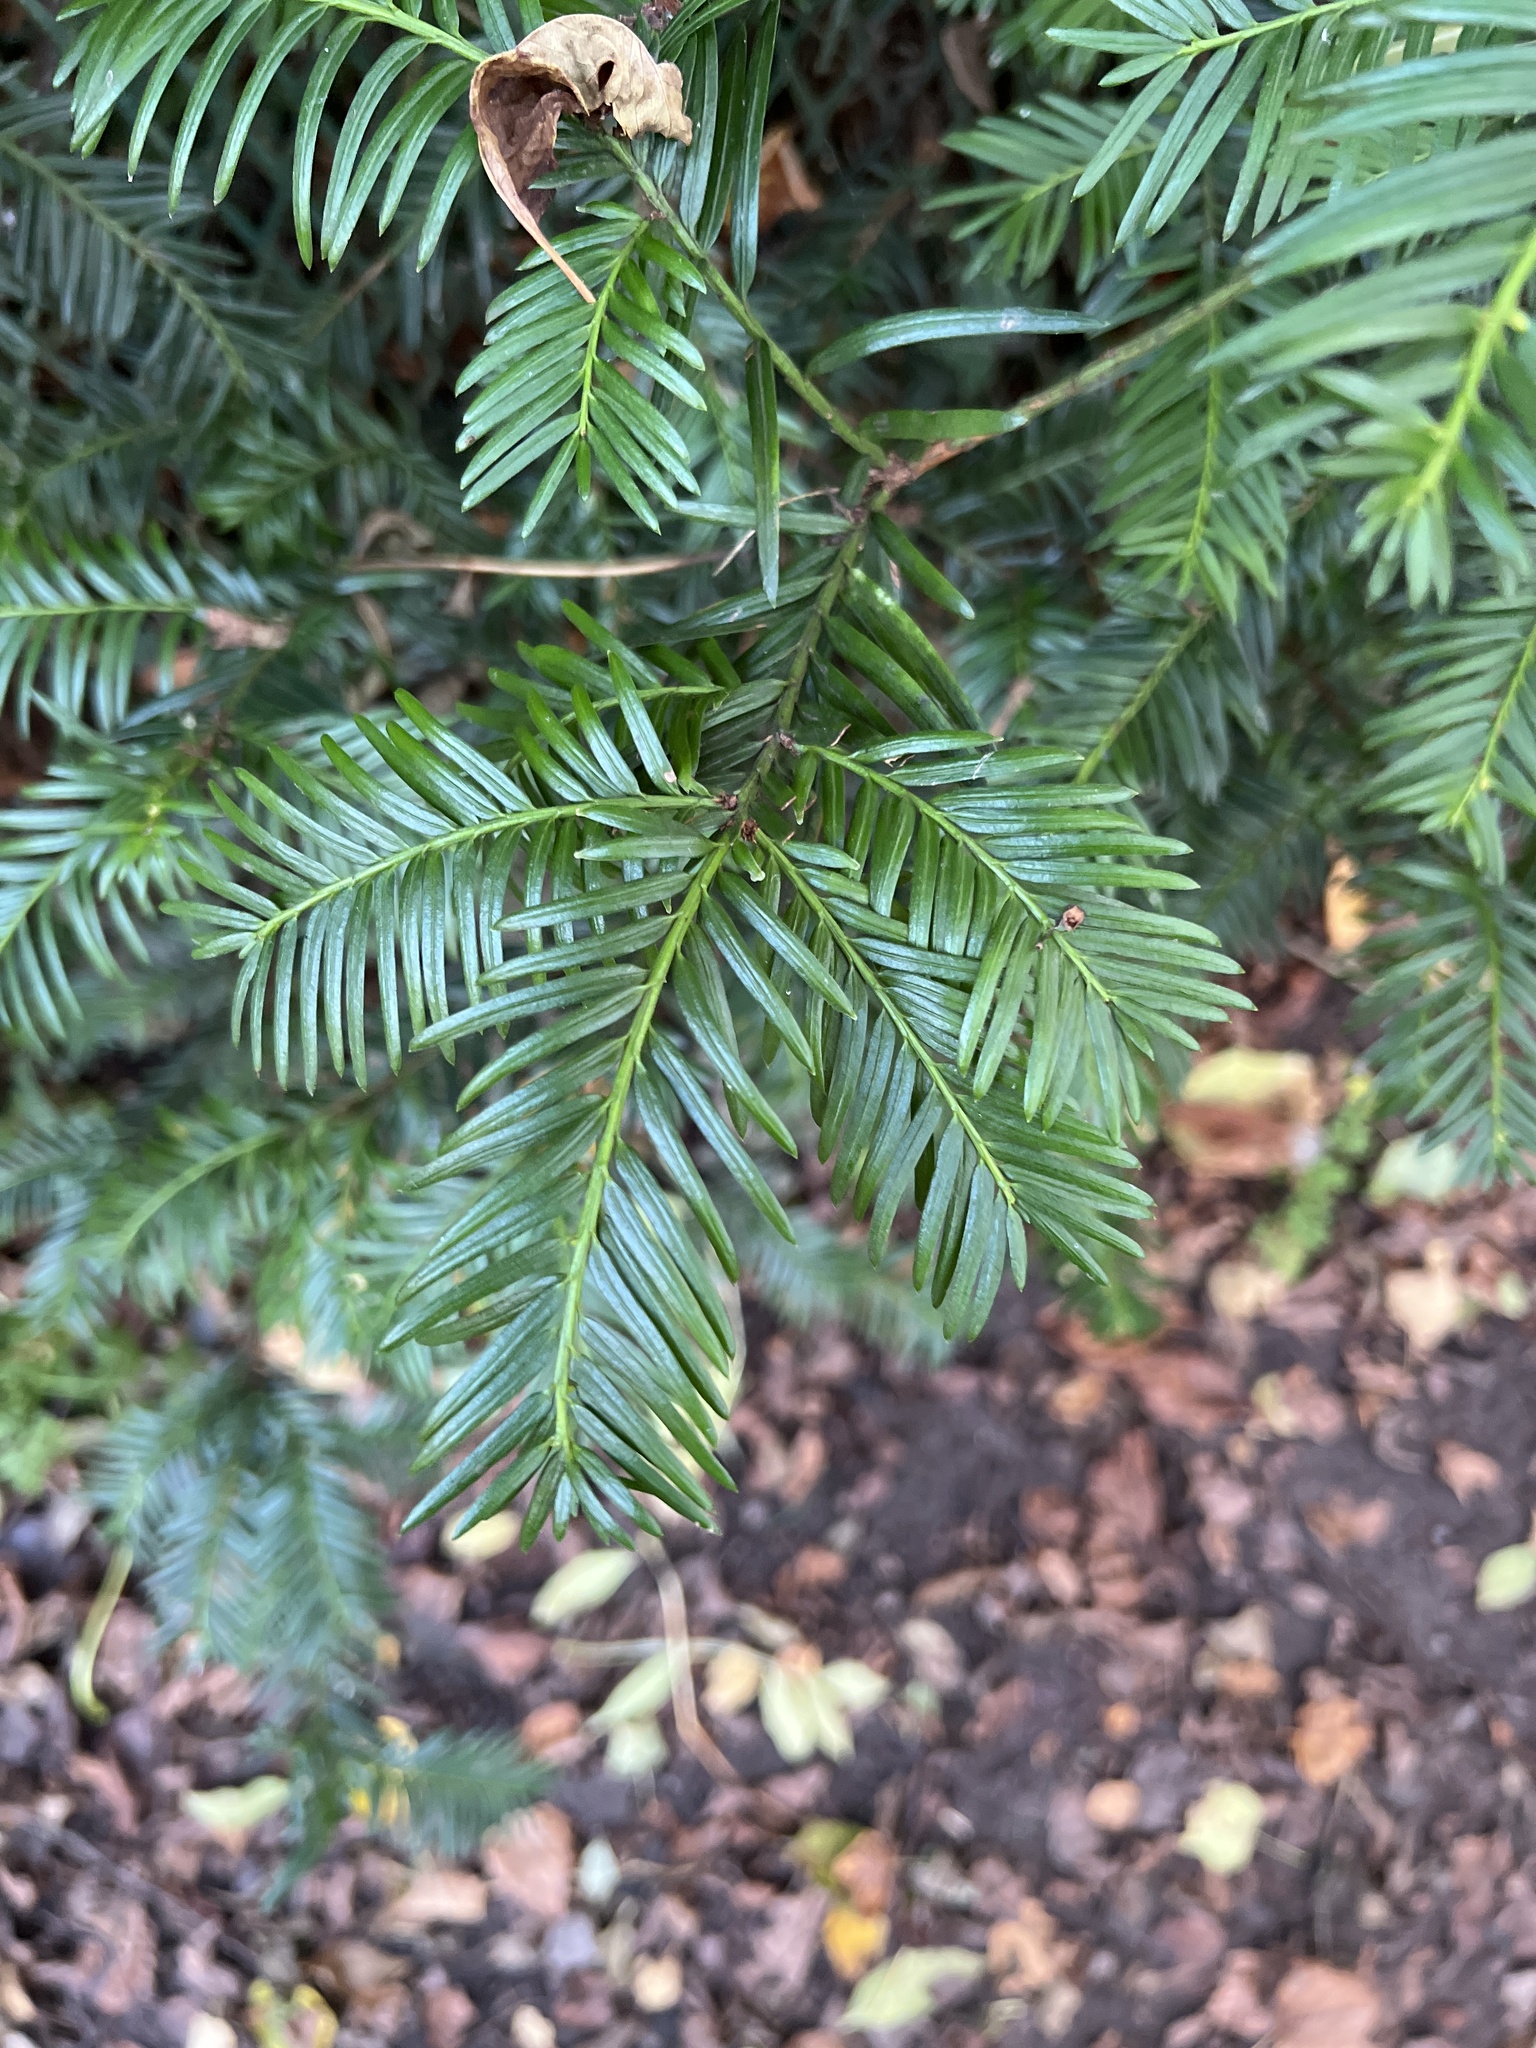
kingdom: Plantae
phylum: Tracheophyta
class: Pinopsida
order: Pinales
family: Taxaceae
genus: Taxus
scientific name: Taxus baccata
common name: Yew
